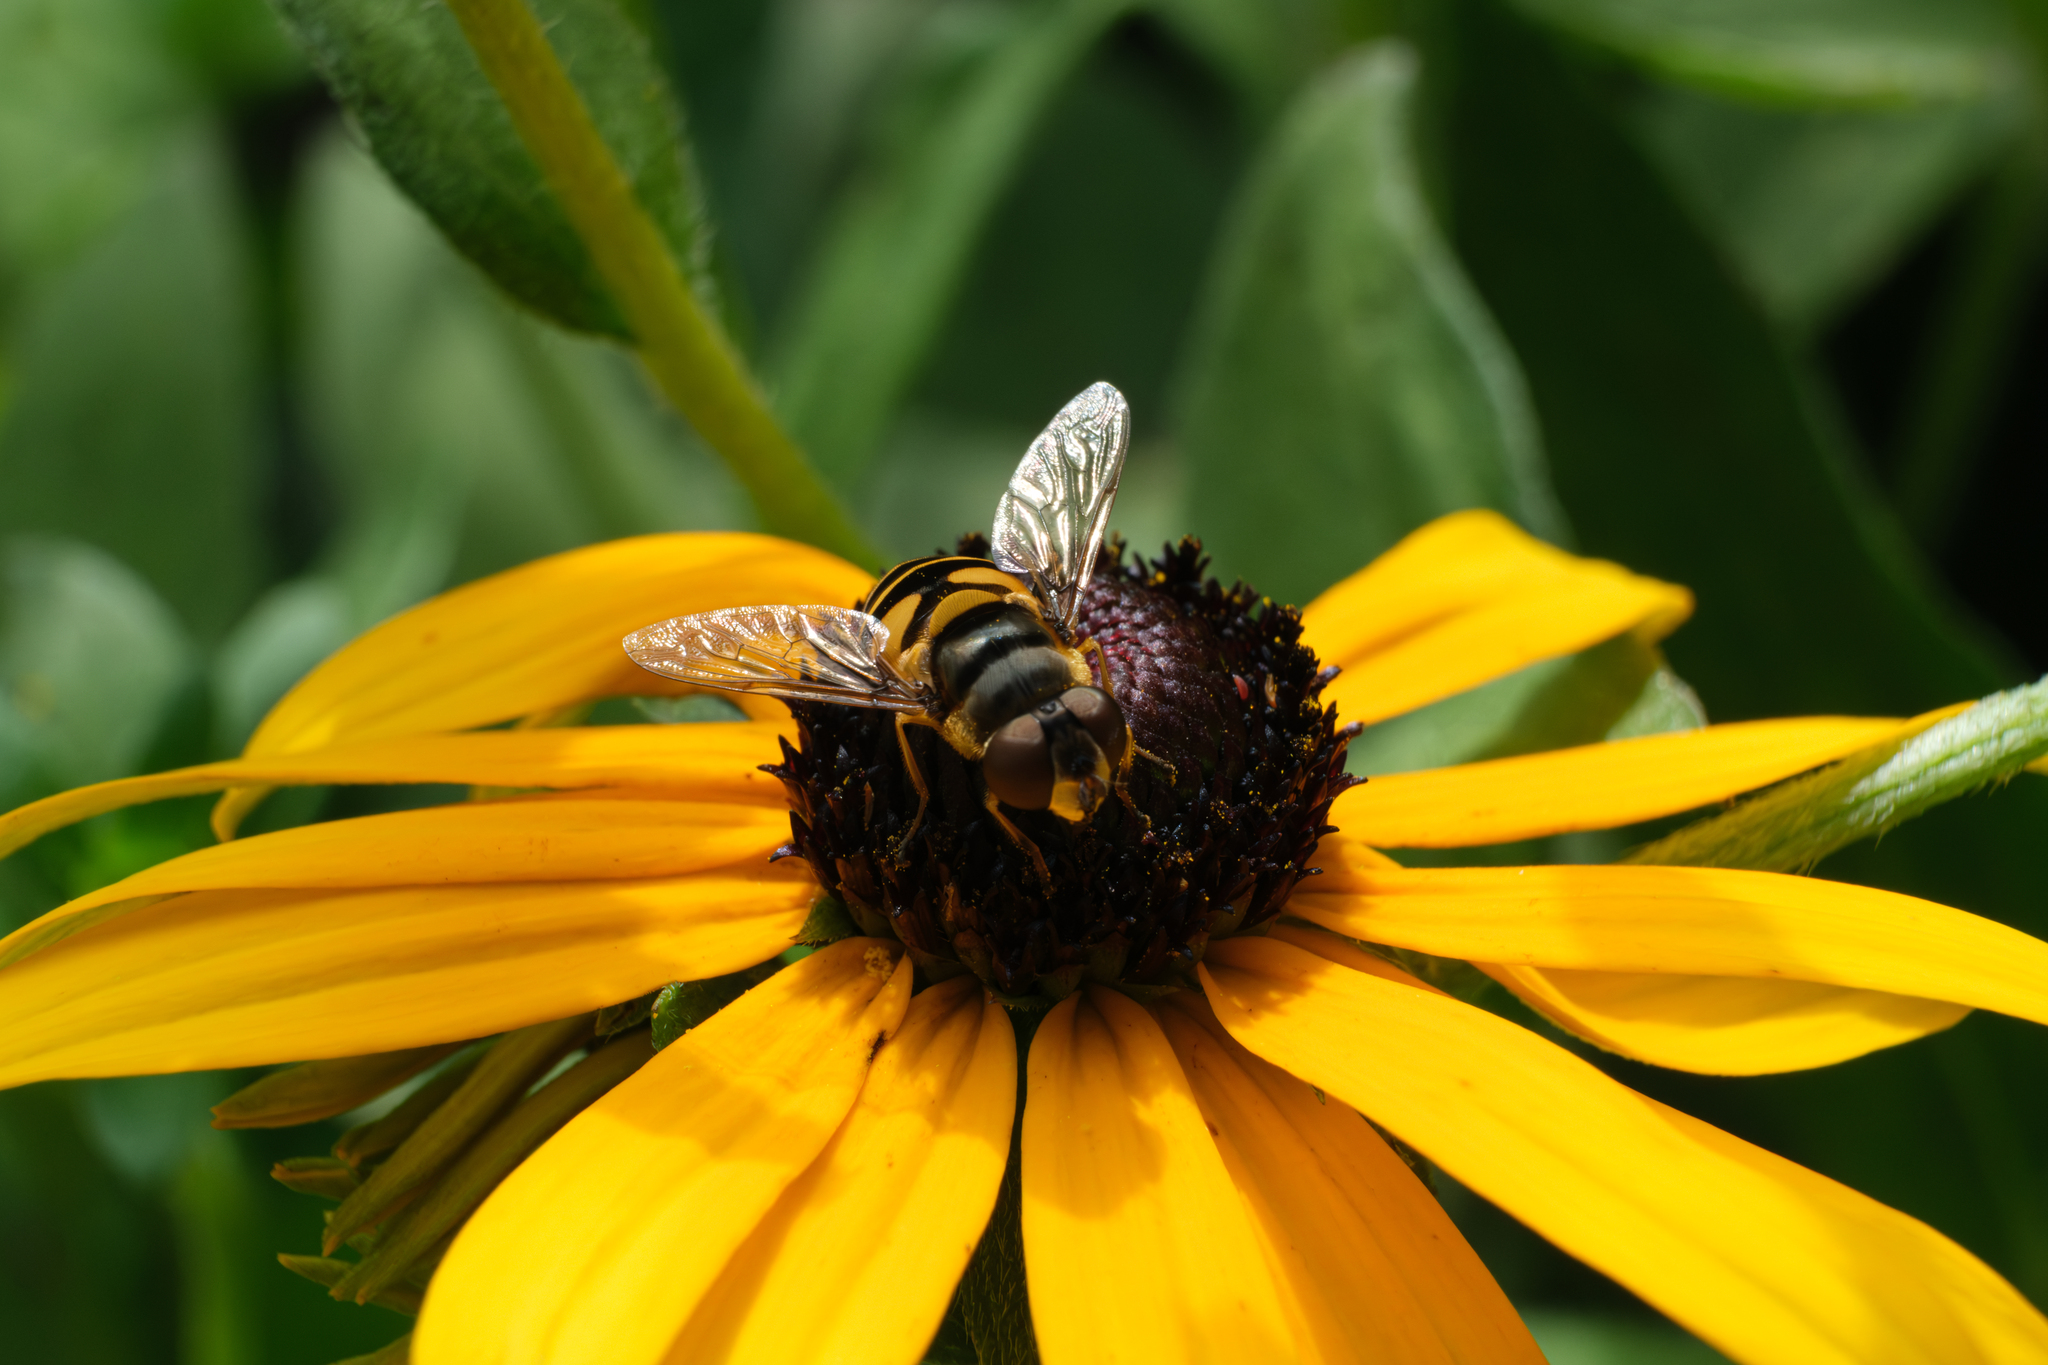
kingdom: Animalia
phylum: Arthropoda
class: Insecta
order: Diptera
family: Syrphidae
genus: Eristalis
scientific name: Eristalis transversa
